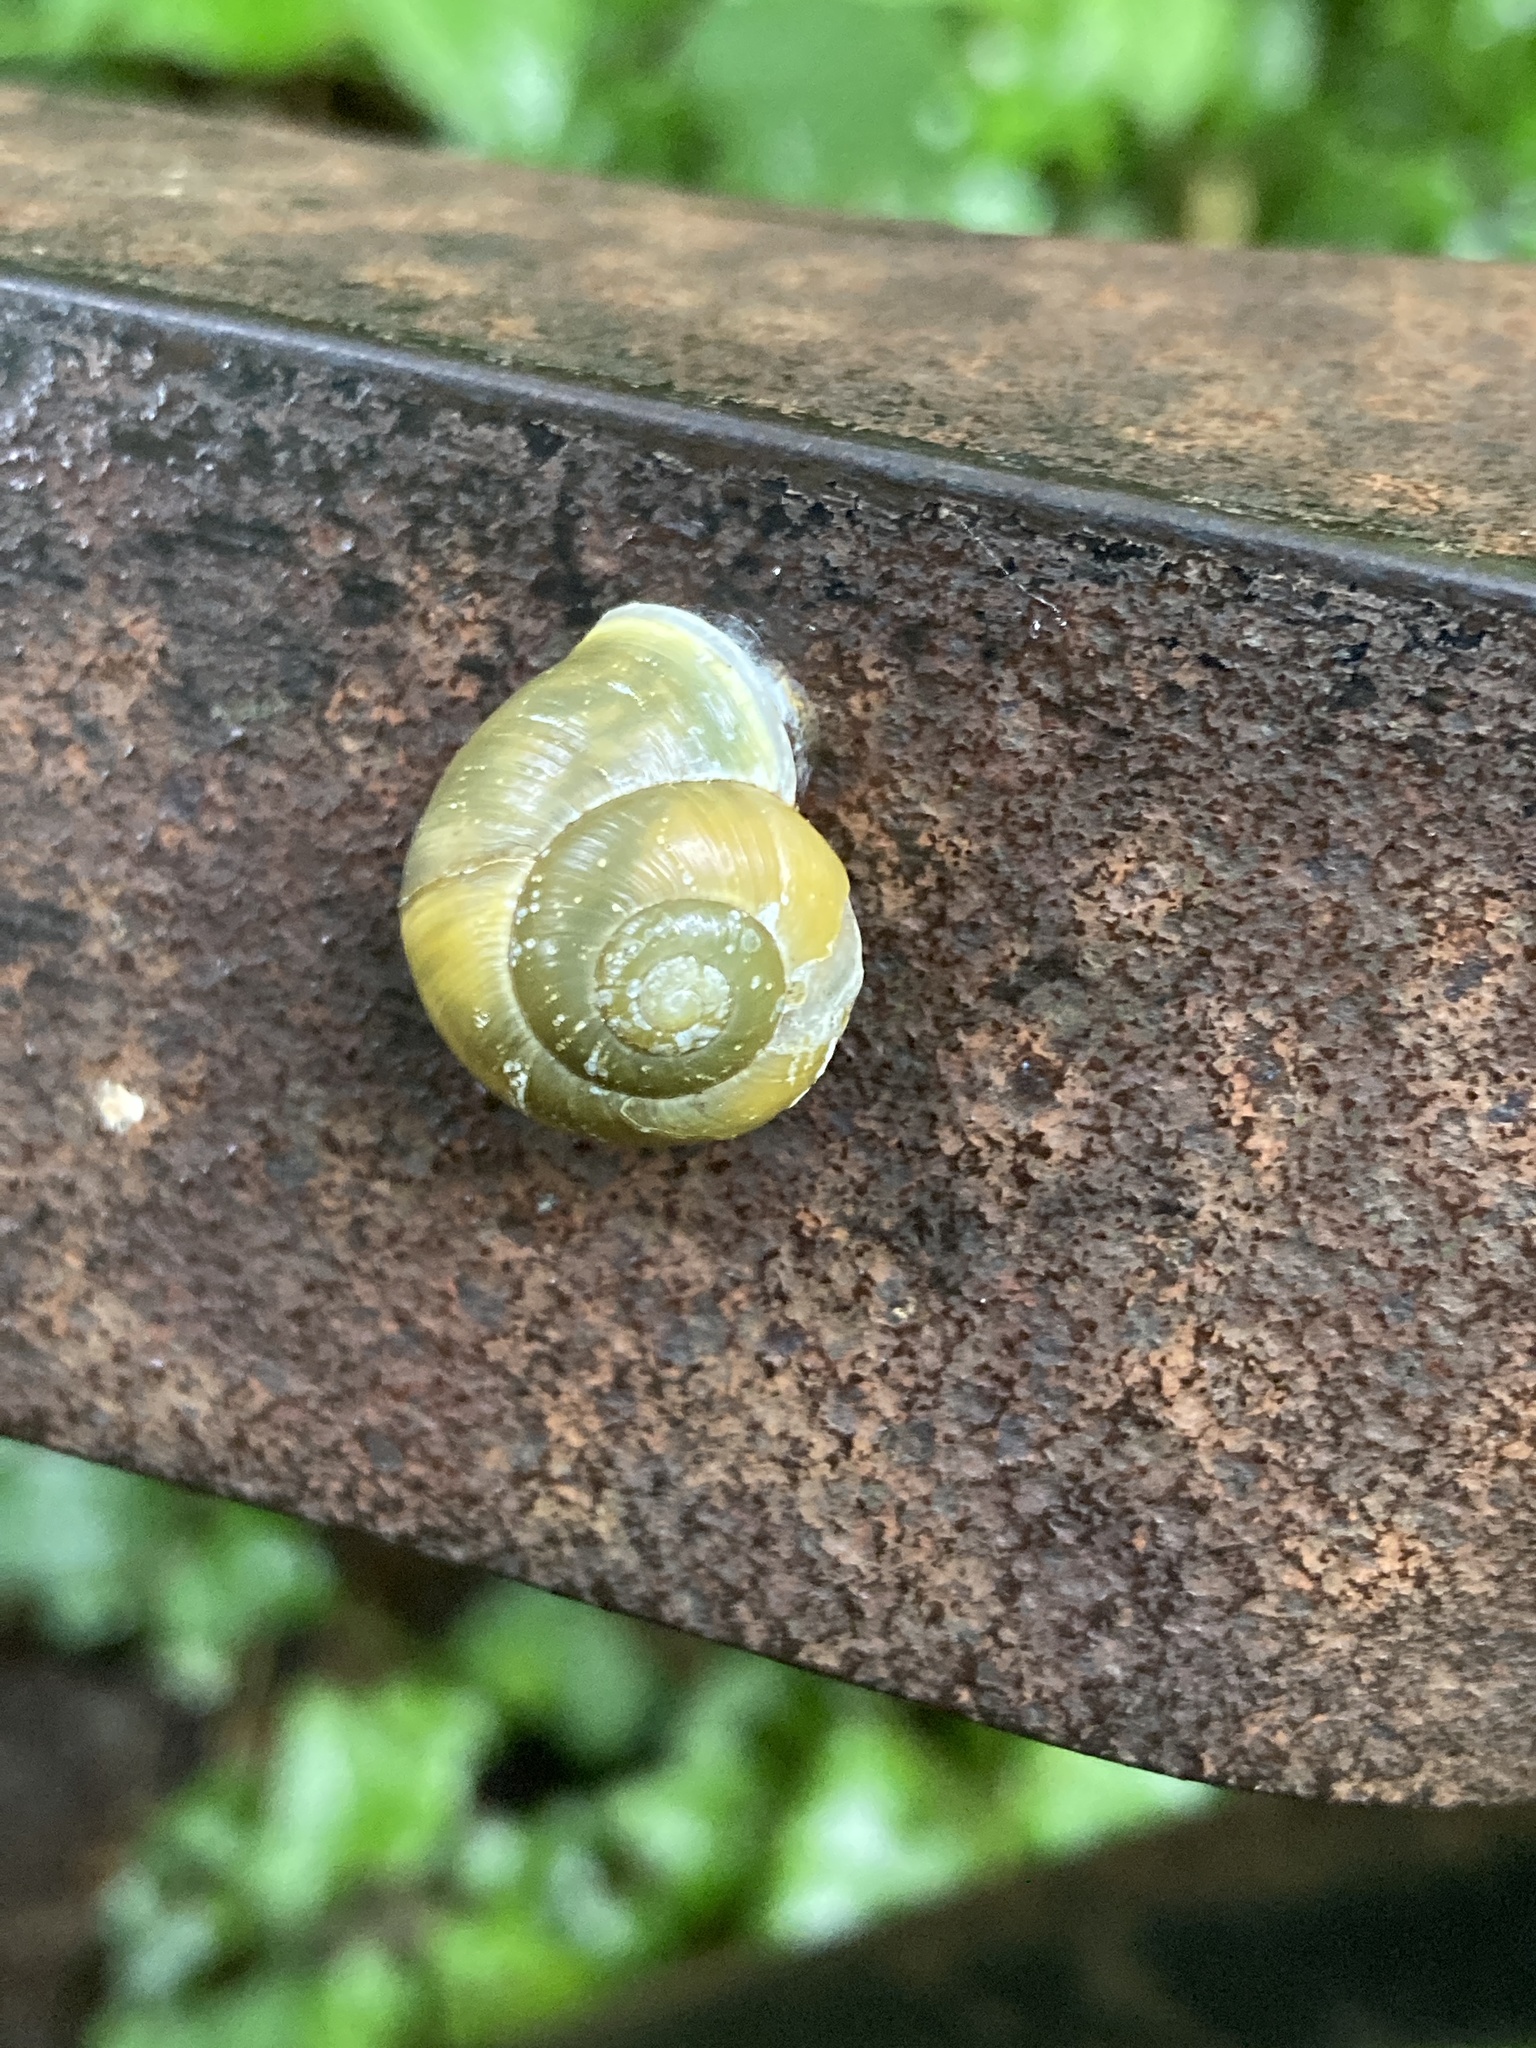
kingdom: Animalia
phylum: Mollusca
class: Gastropoda
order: Stylommatophora
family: Helicidae
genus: Cepaea
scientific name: Cepaea hortensis
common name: White-lip gardensnail
